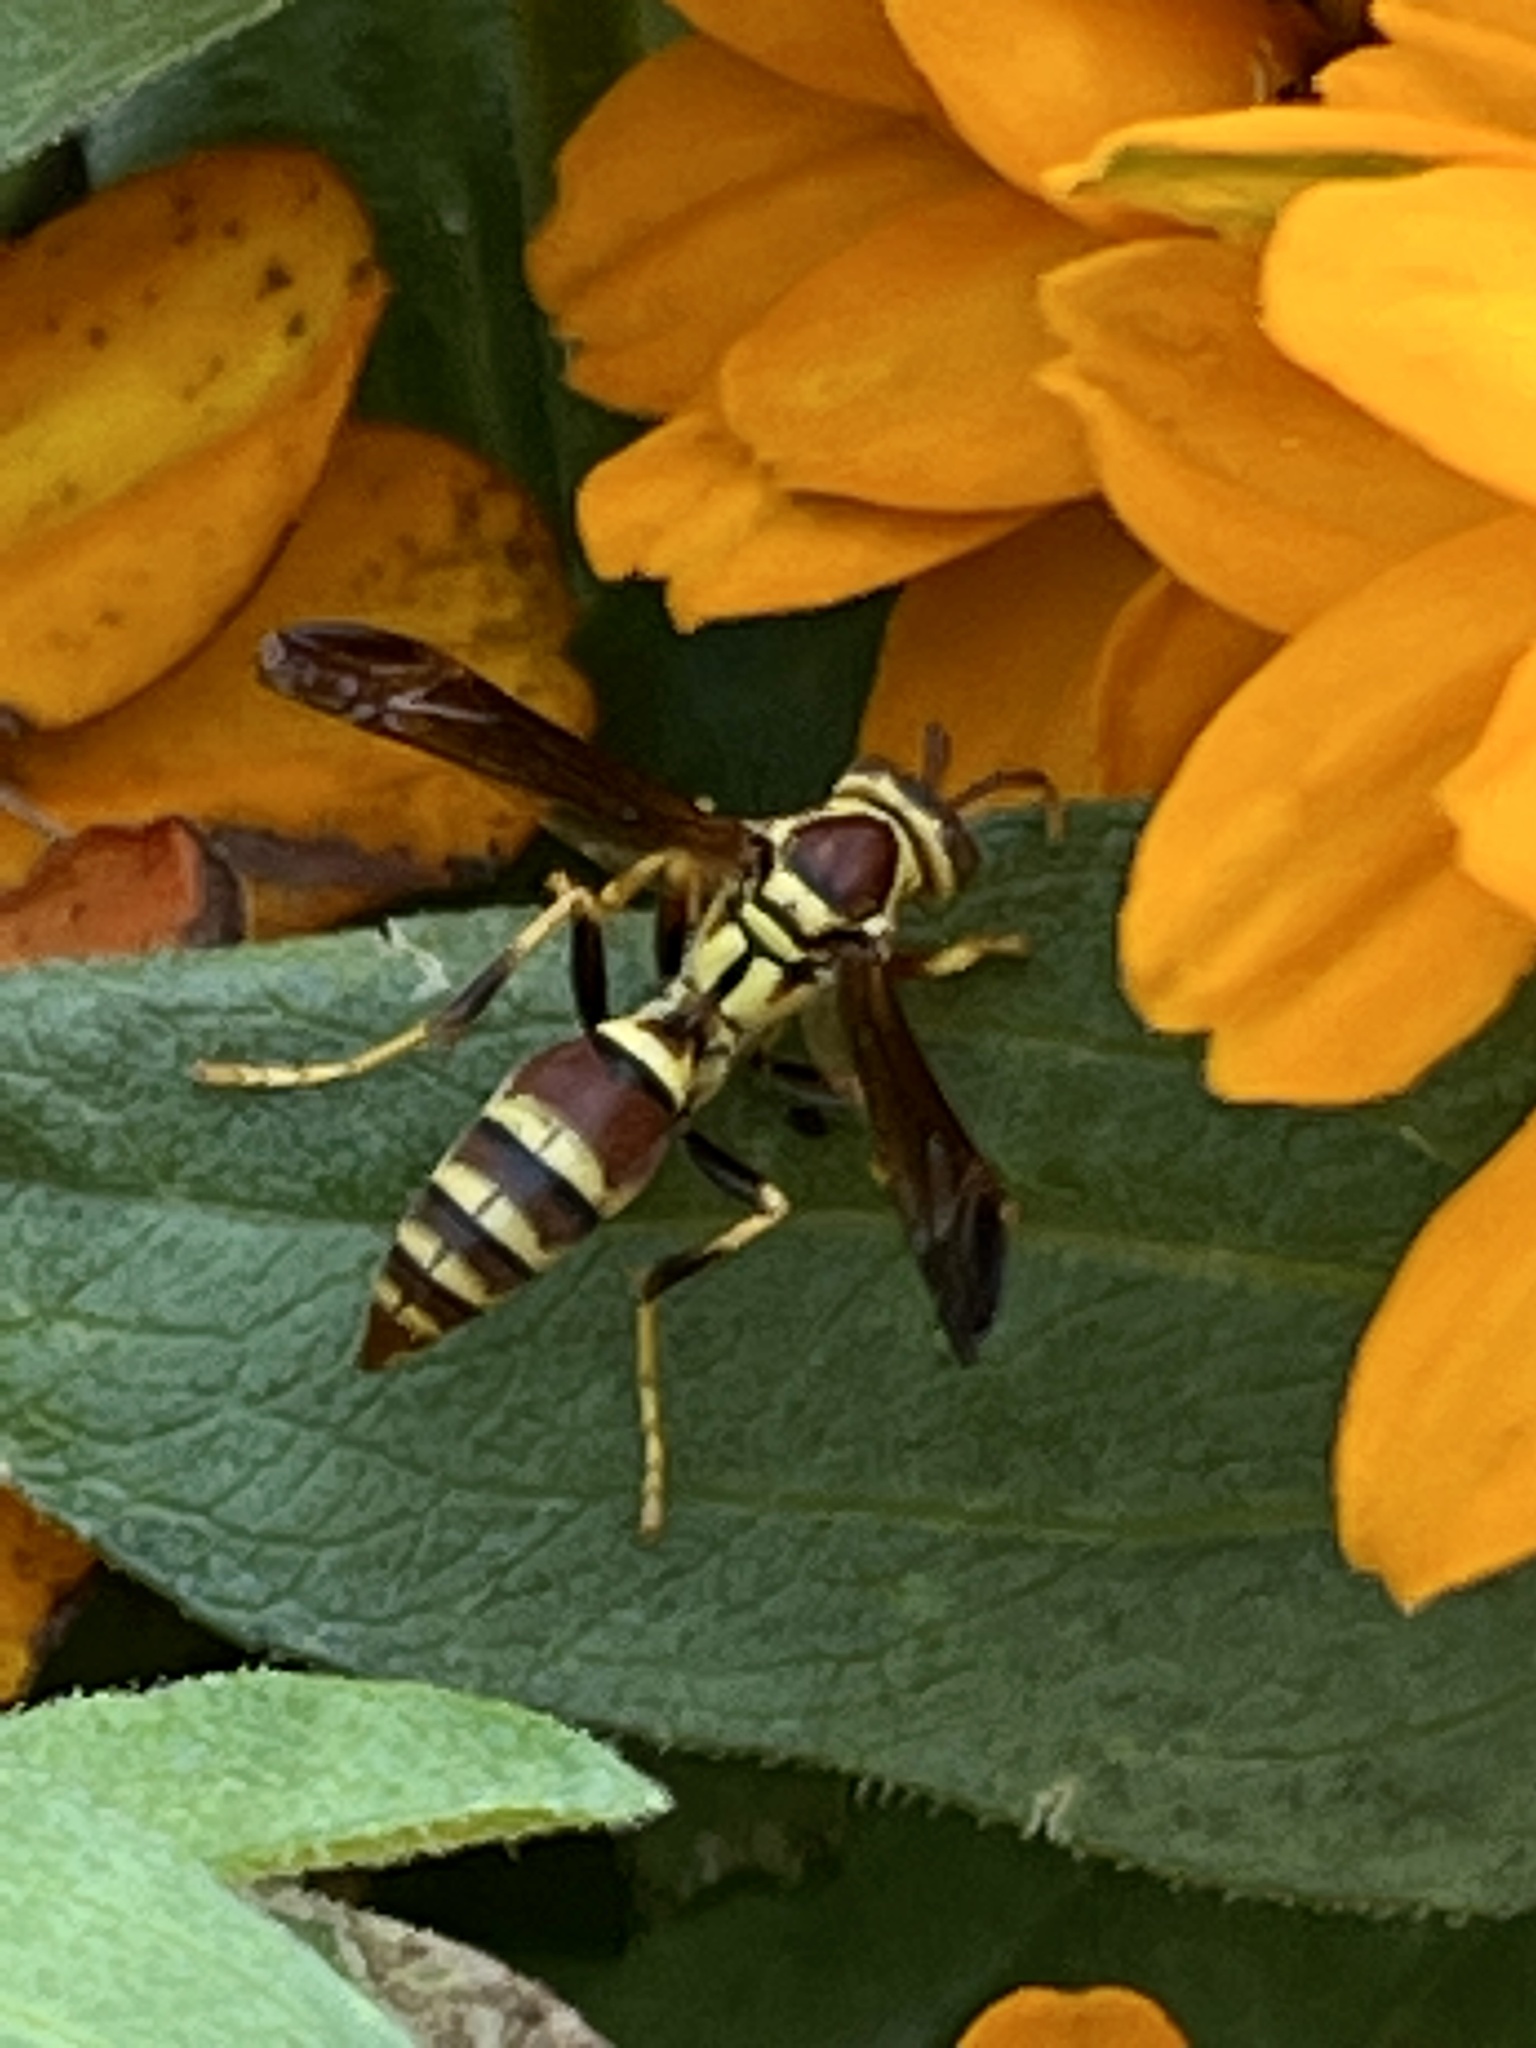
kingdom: Animalia
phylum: Arthropoda
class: Insecta
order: Hymenoptera
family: Eumenidae
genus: Polistes
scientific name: Polistes exclamans
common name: Paper wasp
